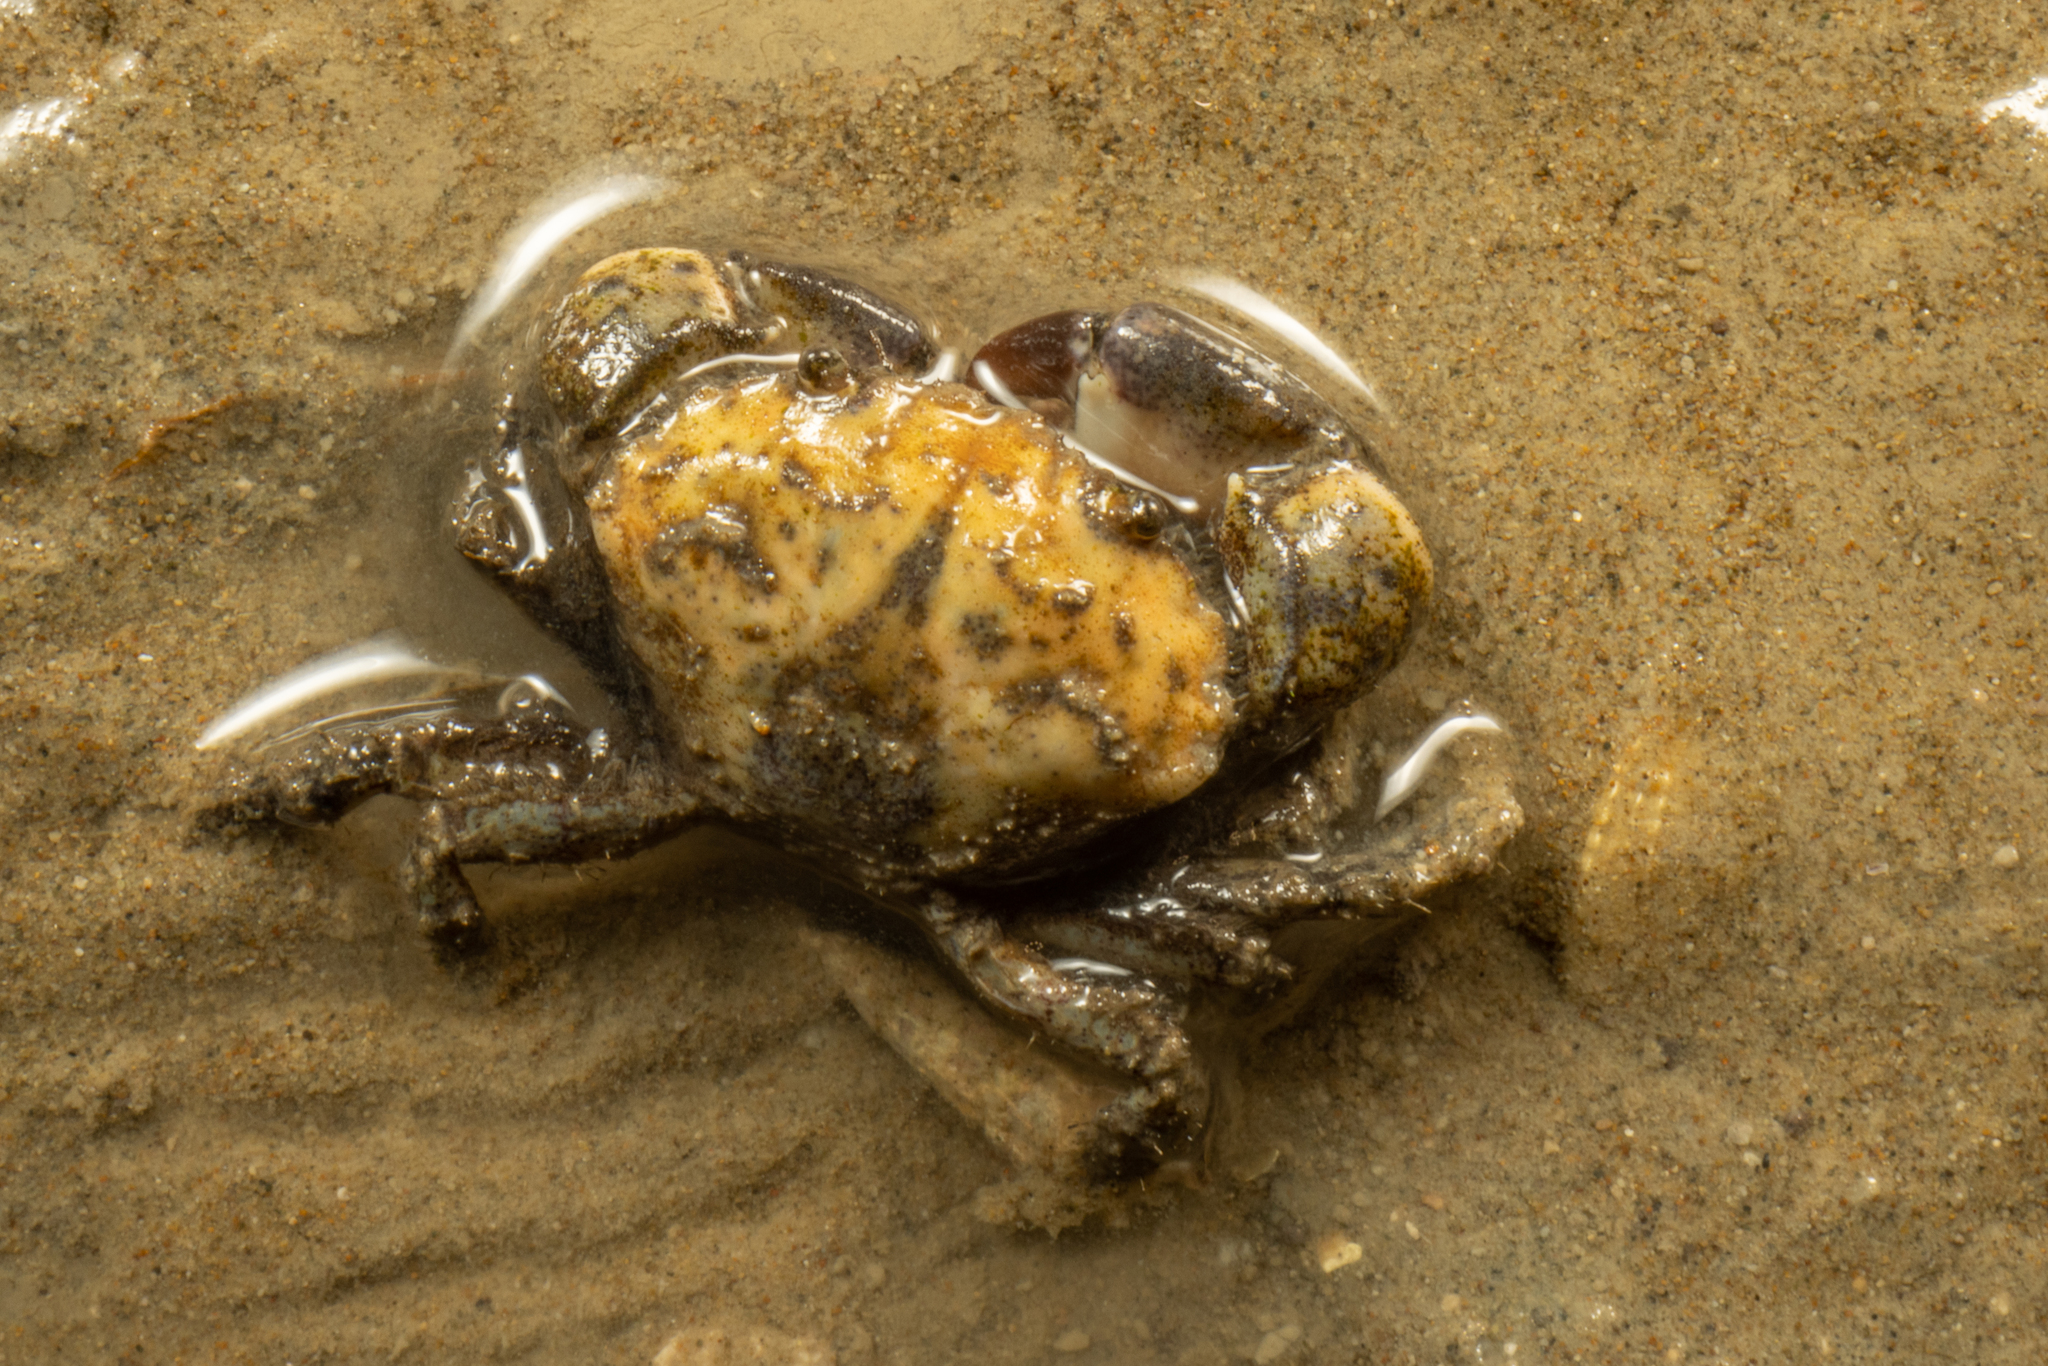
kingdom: Animalia
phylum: Arthropoda
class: Malacostraca
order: Decapoda
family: Pilumnidae
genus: Pilumnopeus
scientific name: Pilumnopeus serratifrons
